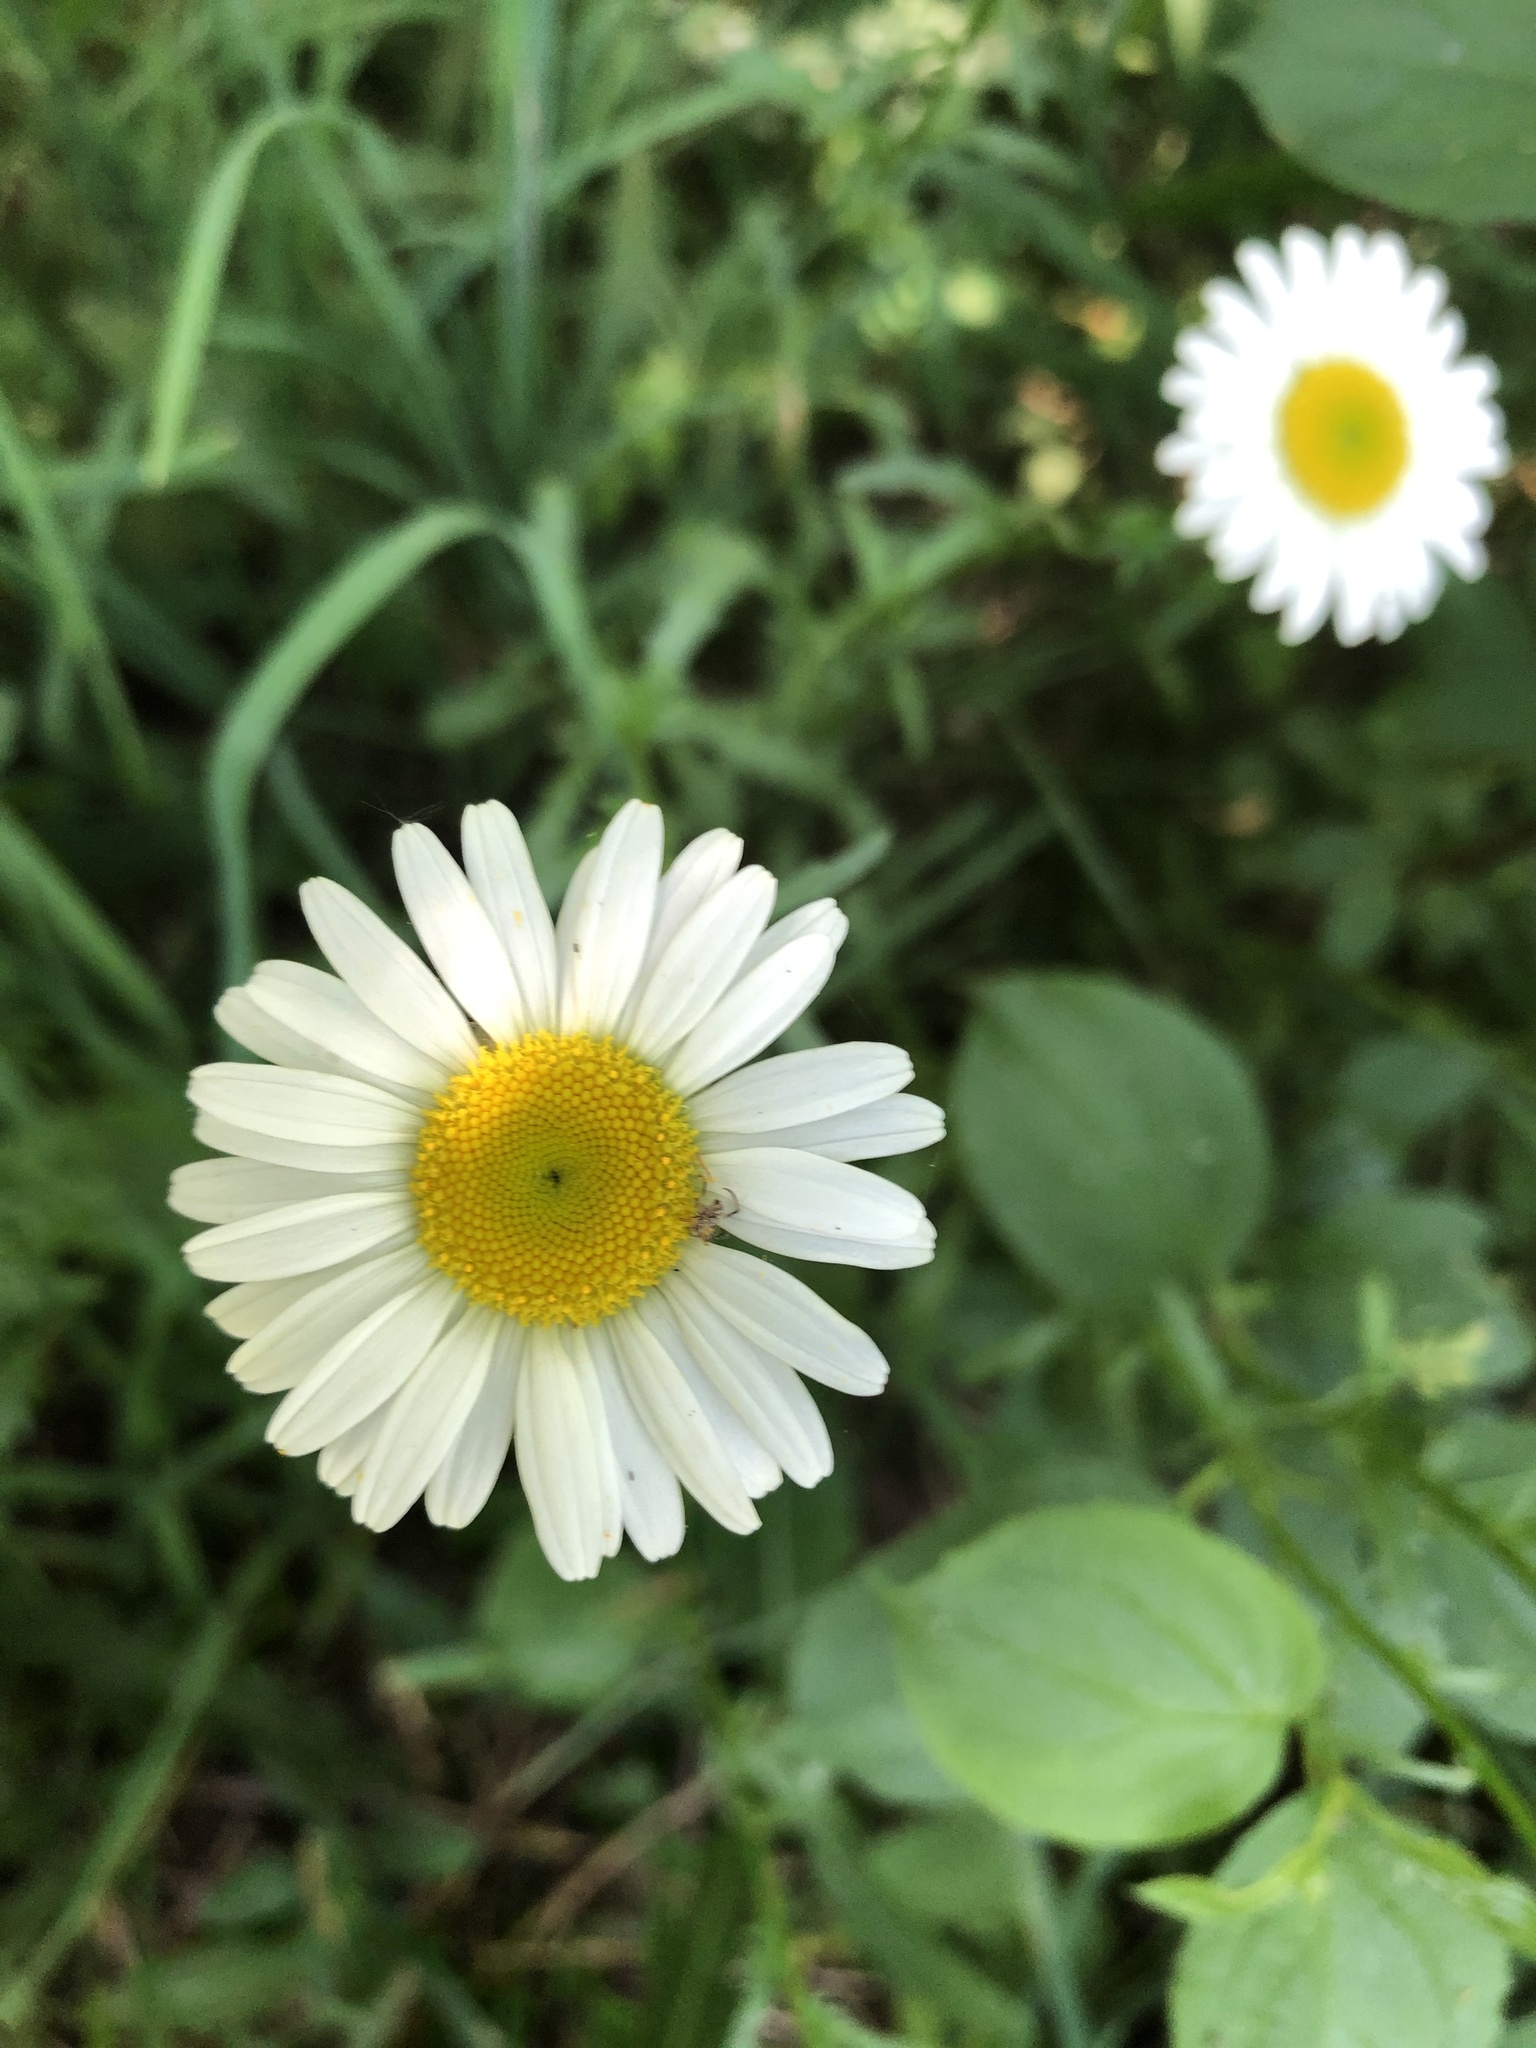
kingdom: Plantae
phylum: Tracheophyta
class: Magnoliopsida
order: Asterales
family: Asteraceae
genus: Leucanthemum
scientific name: Leucanthemum vulgare
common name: Oxeye daisy
